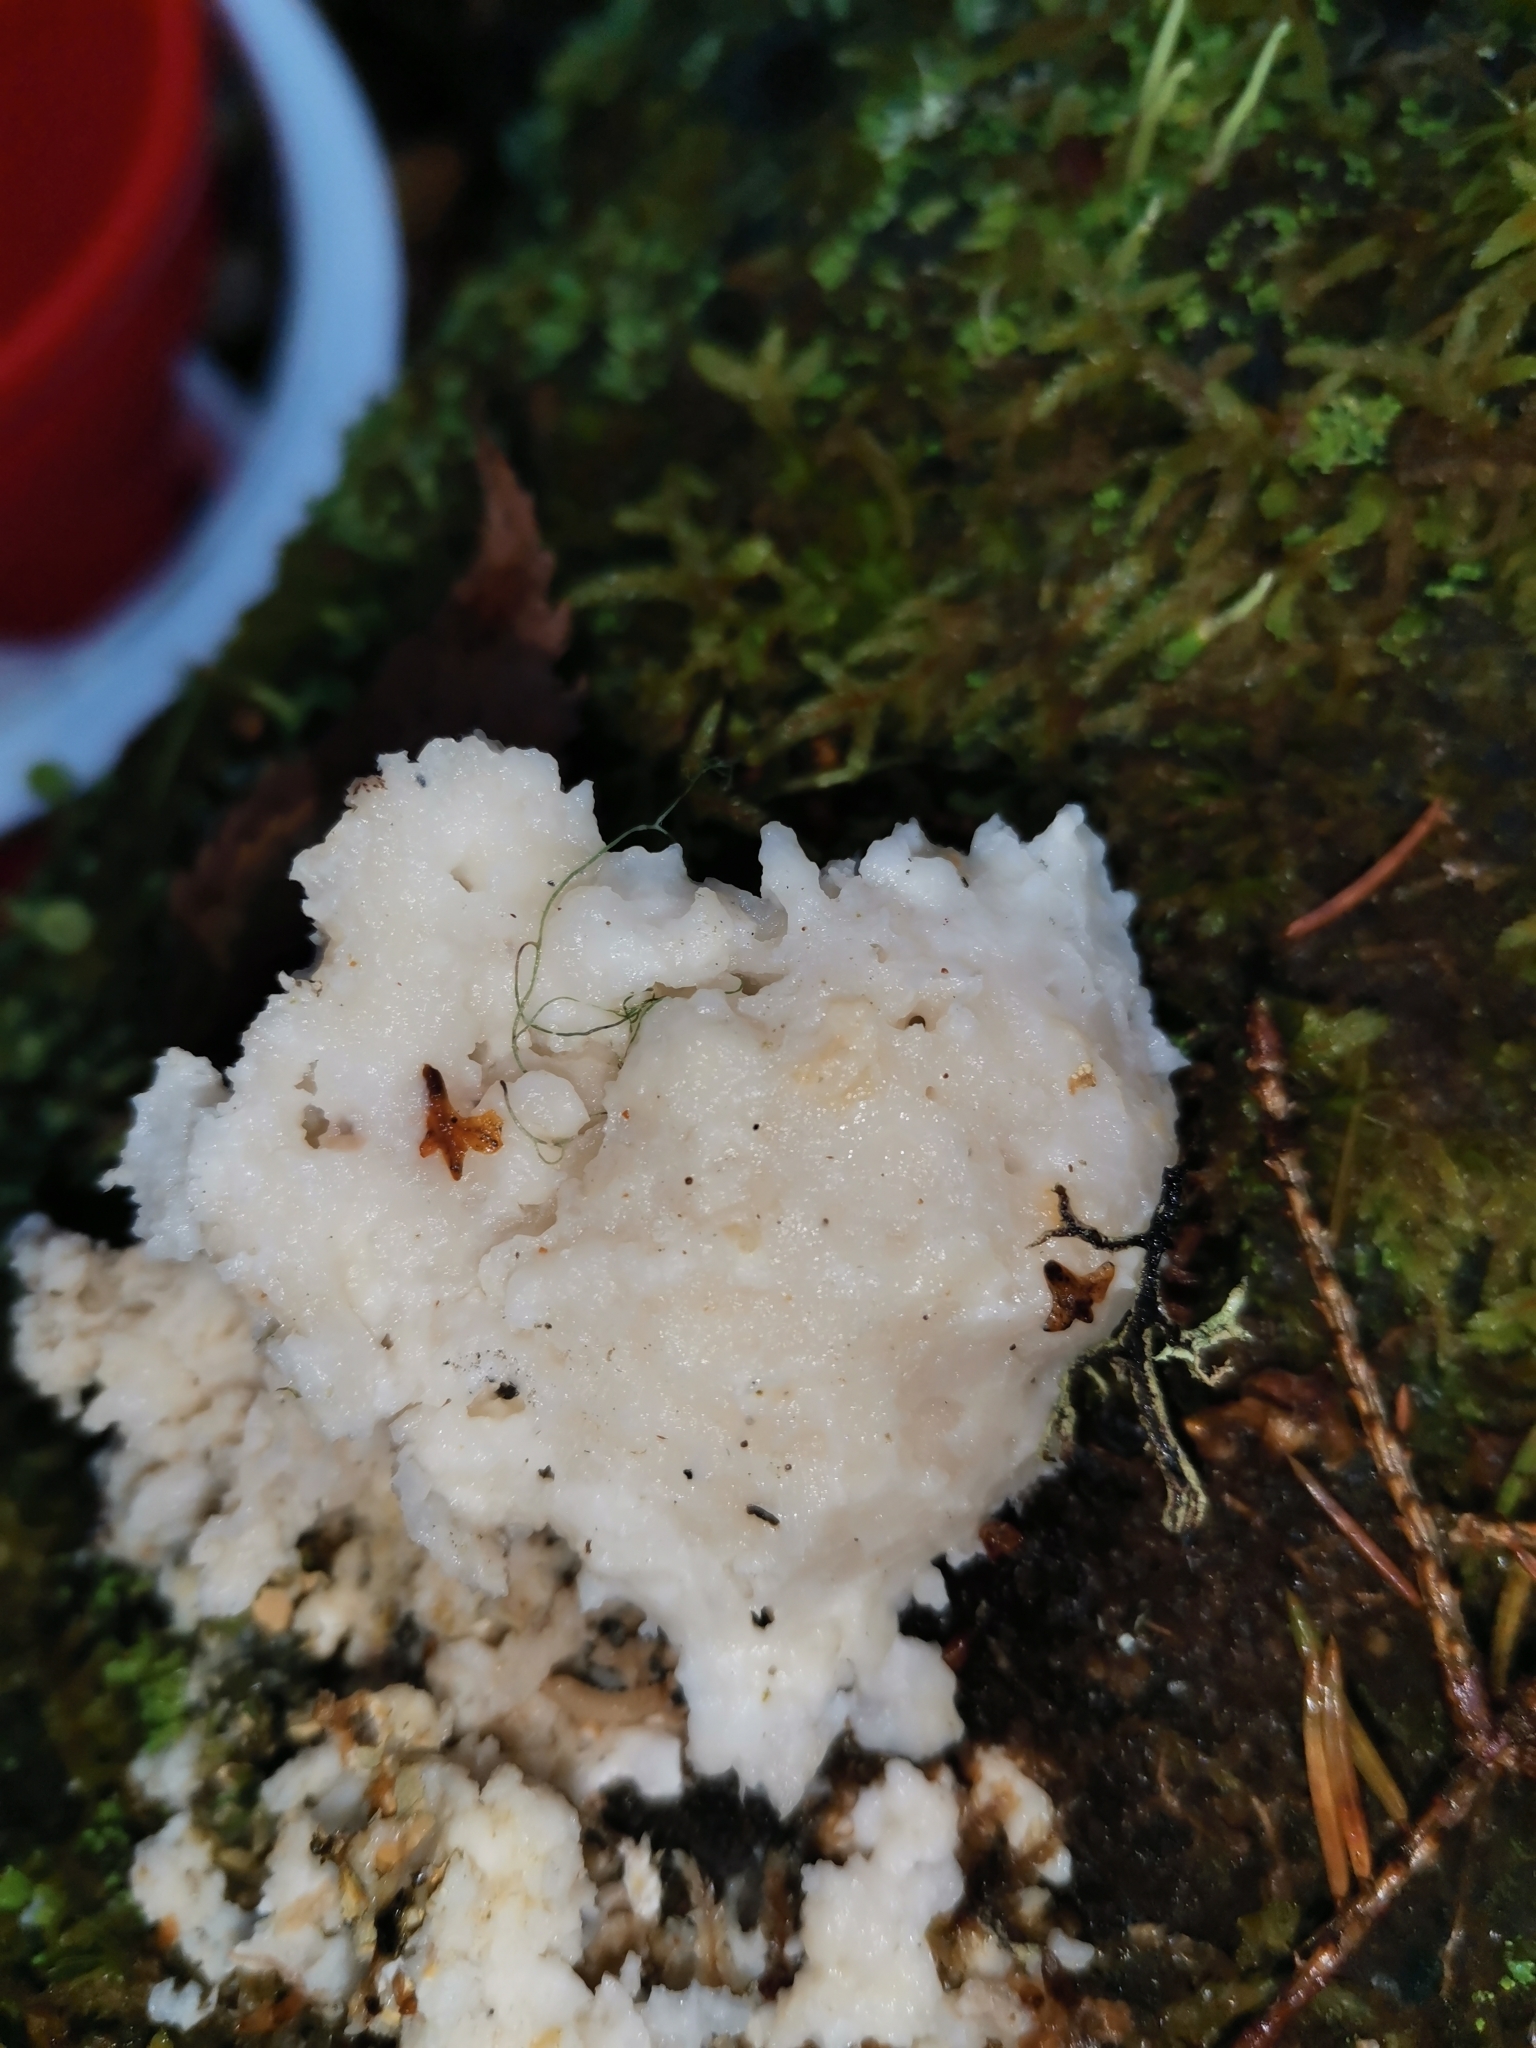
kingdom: Fungi
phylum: Basidiomycota
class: Agaricomycetes
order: Polyporales
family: Dacryobolaceae
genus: Postia
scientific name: Postia ptychogaster
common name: Powderpuff bracket
